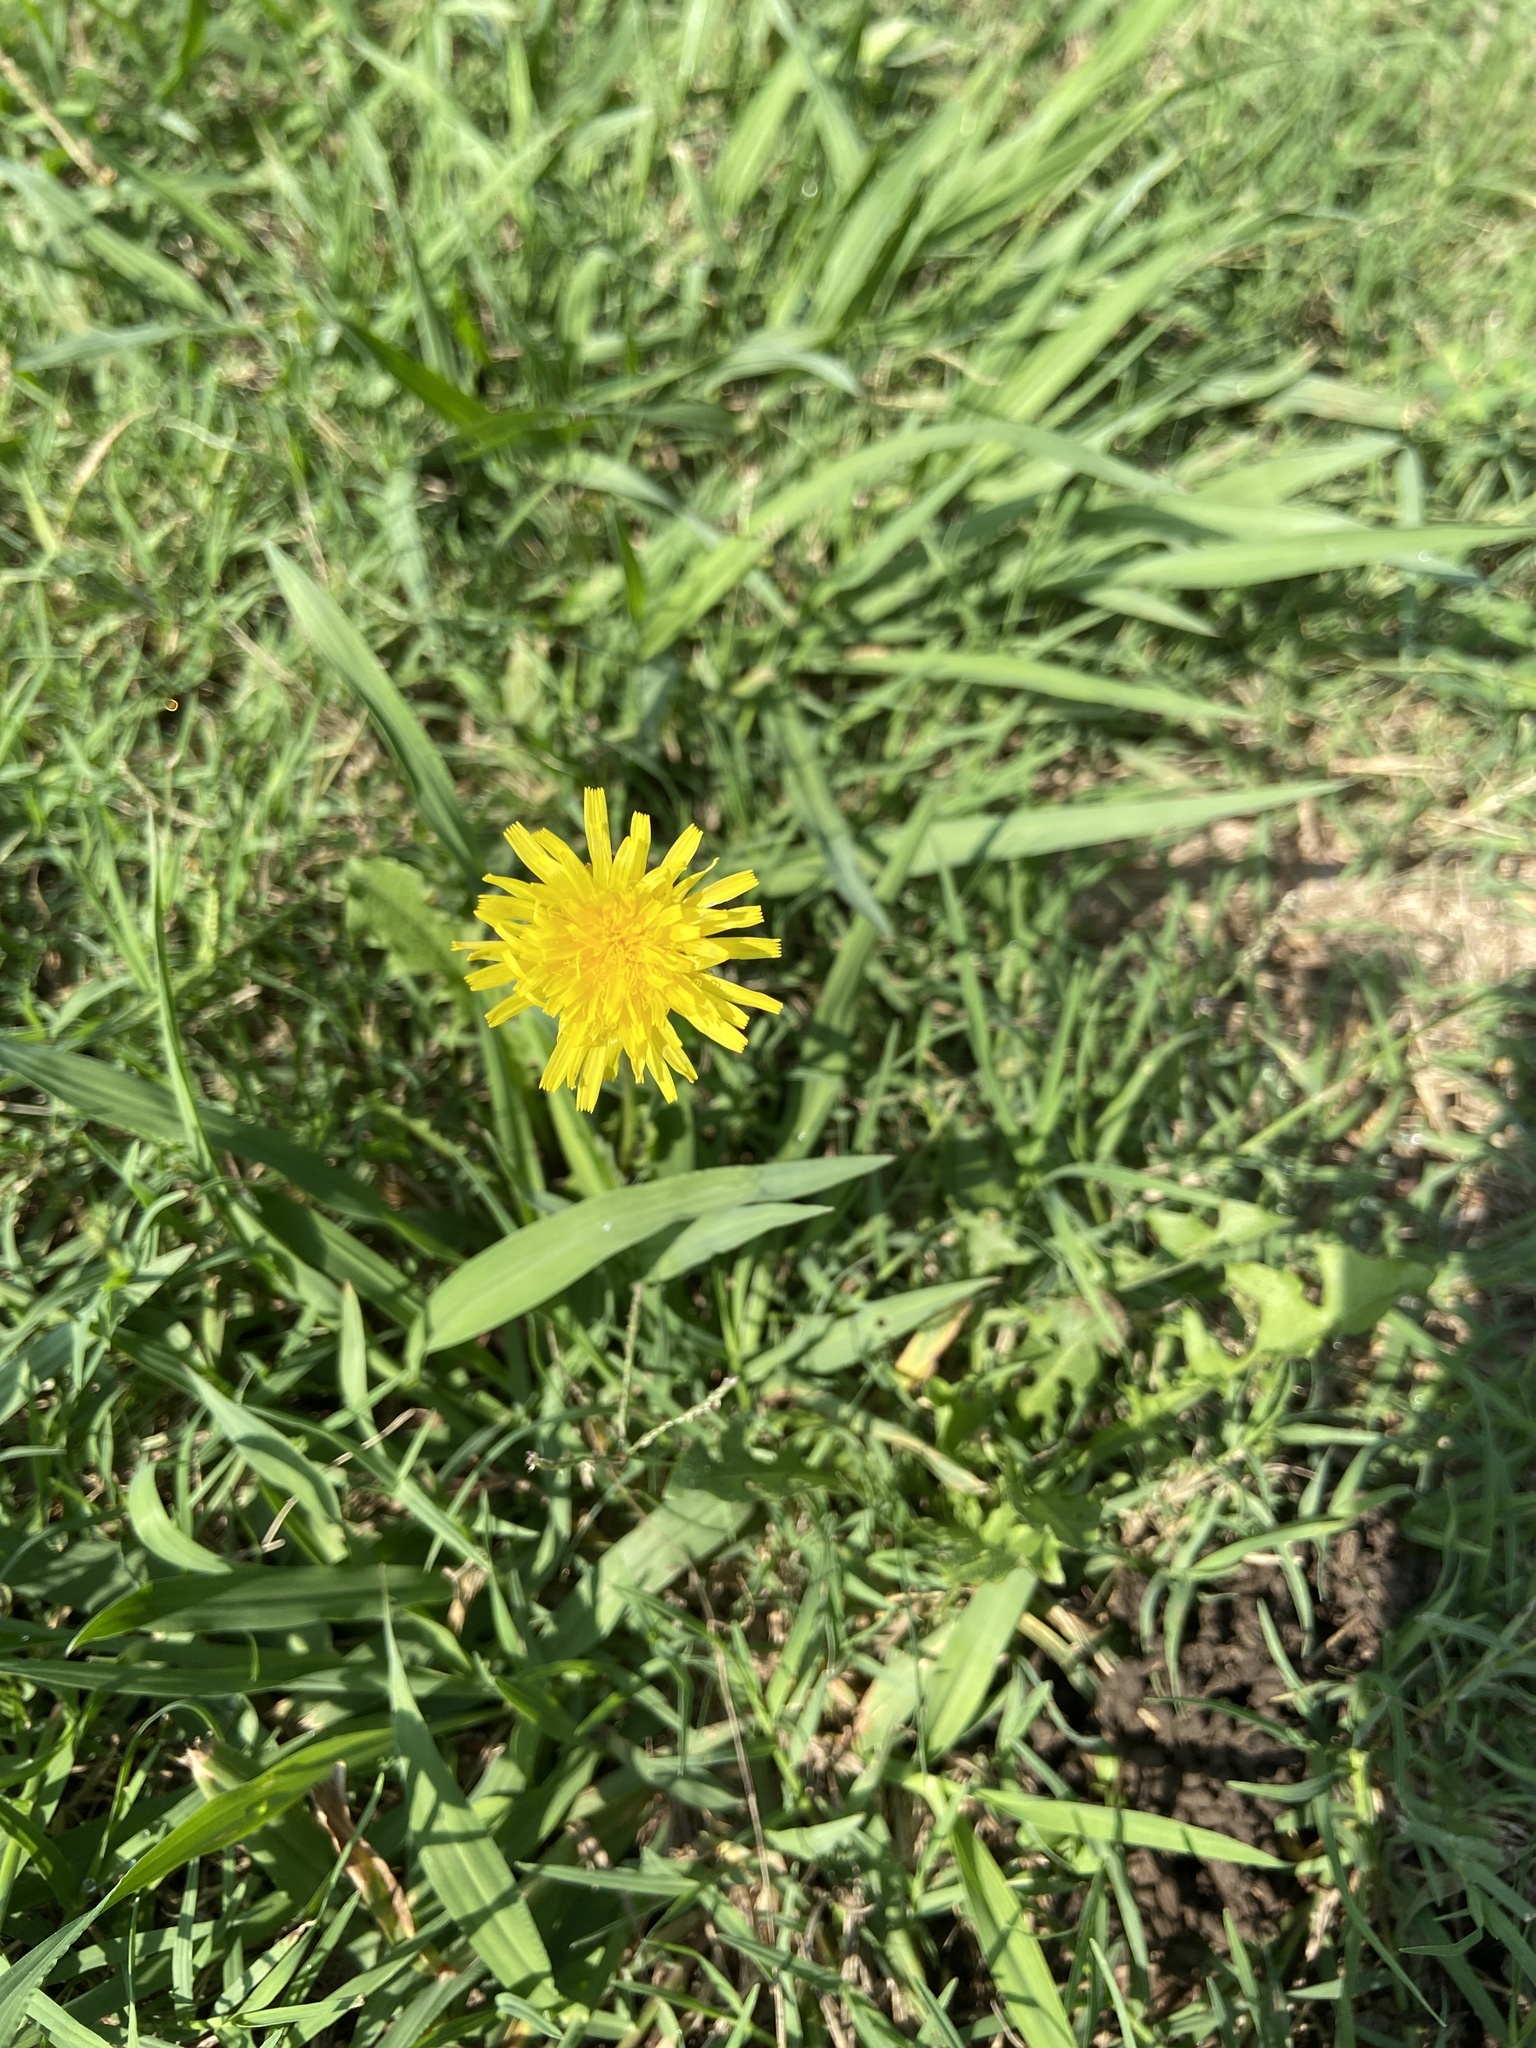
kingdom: Plantae
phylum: Tracheophyta
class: Magnoliopsida
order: Asterales
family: Asteraceae
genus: Taraxacum
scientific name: Taraxacum officinale
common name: Common dandelion
